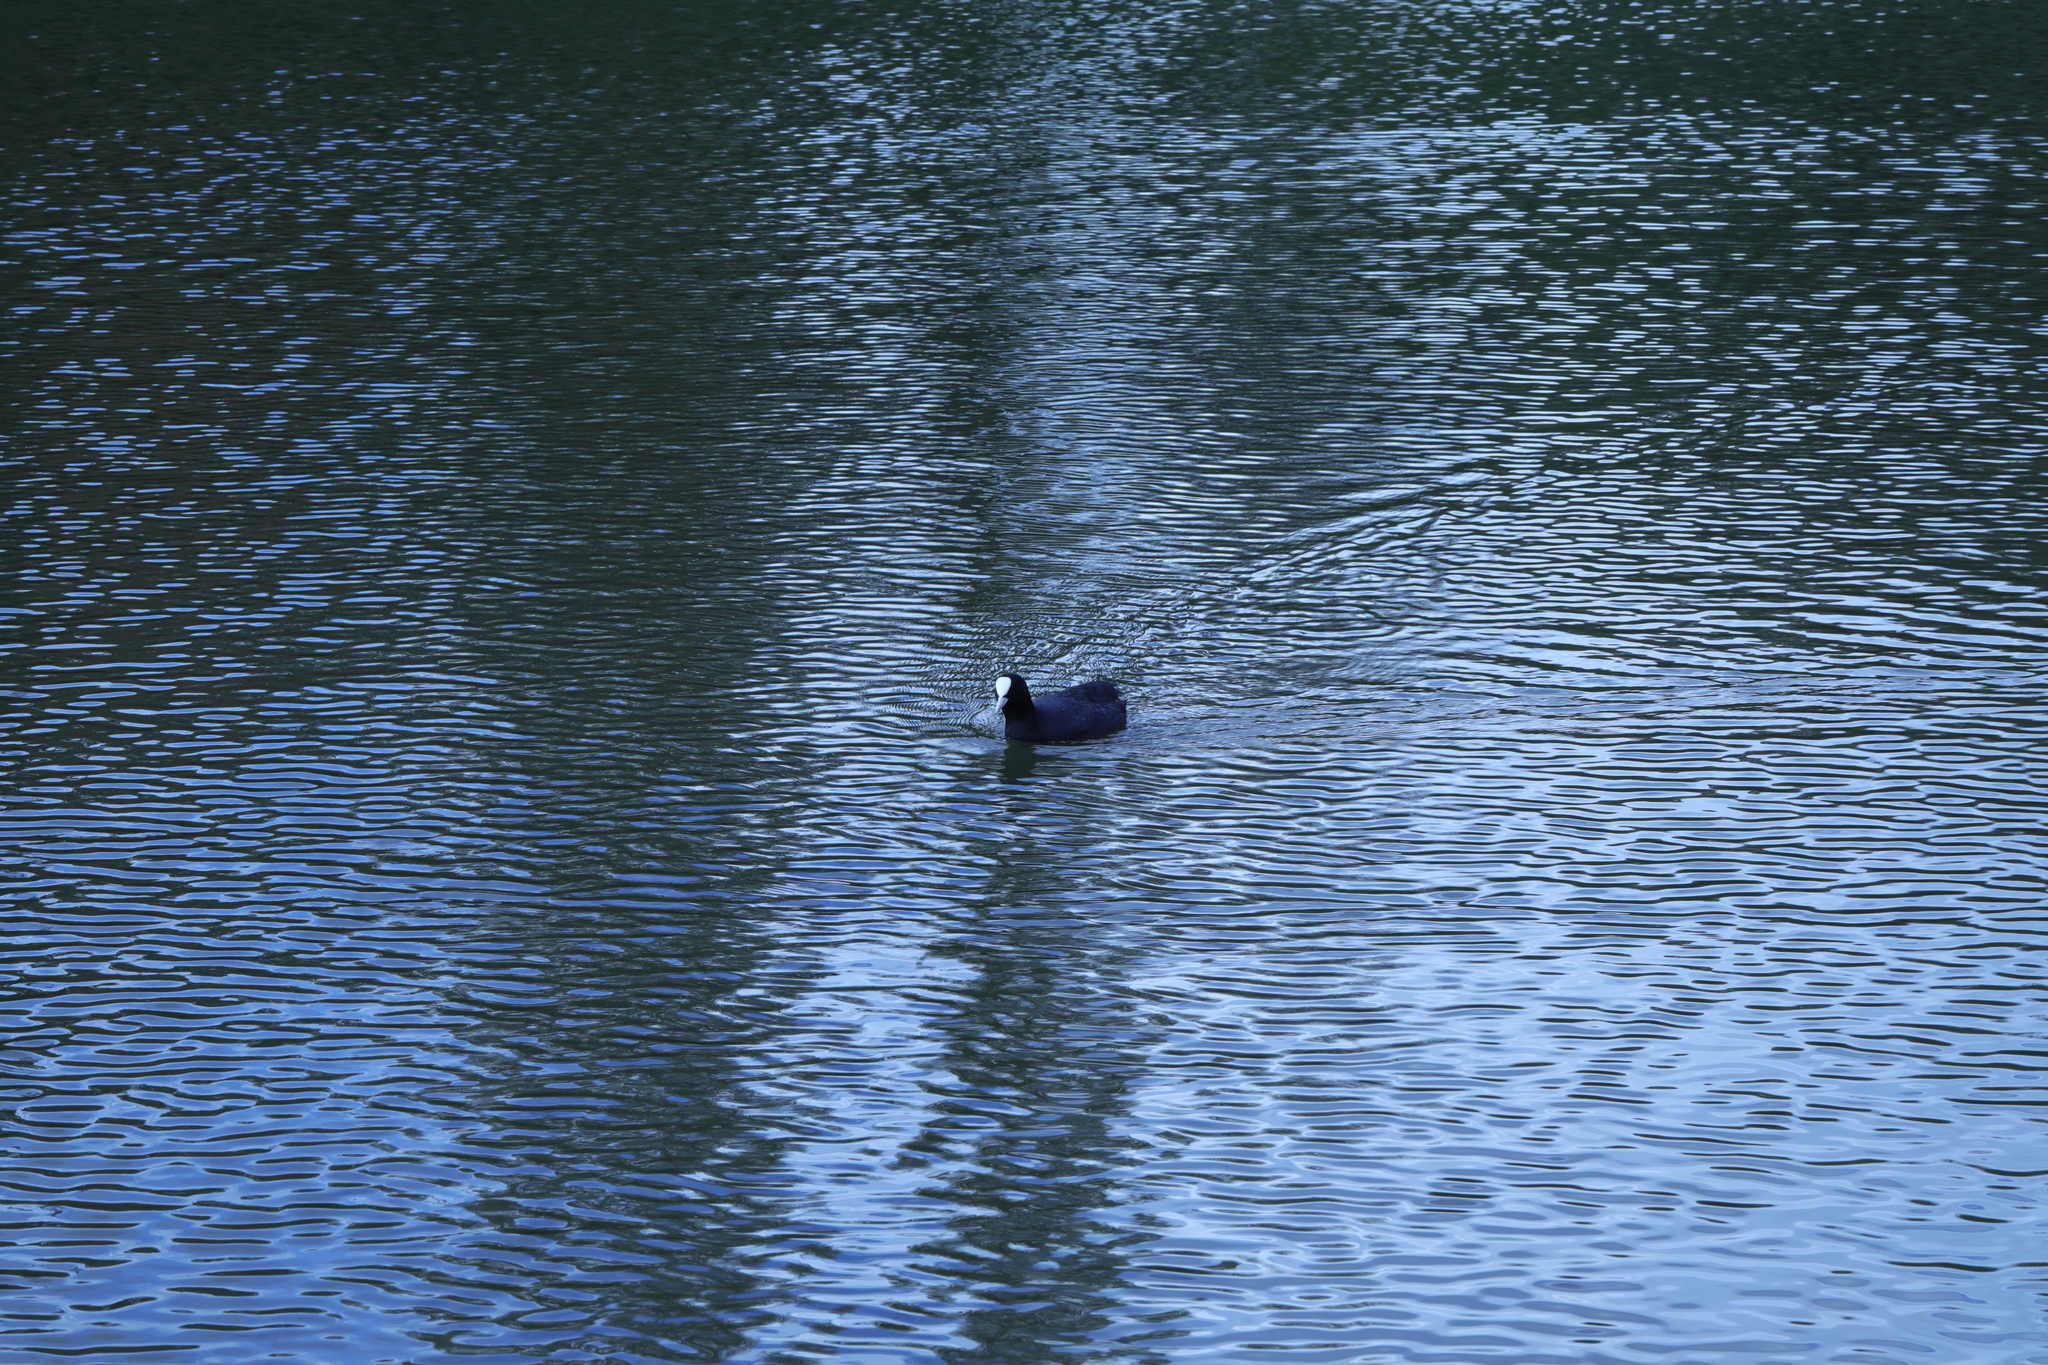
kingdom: Animalia
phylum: Chordata
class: Aves
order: Gruiformes
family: Rallidae
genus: Fulica
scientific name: Fulica atra
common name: Eurasian coot
